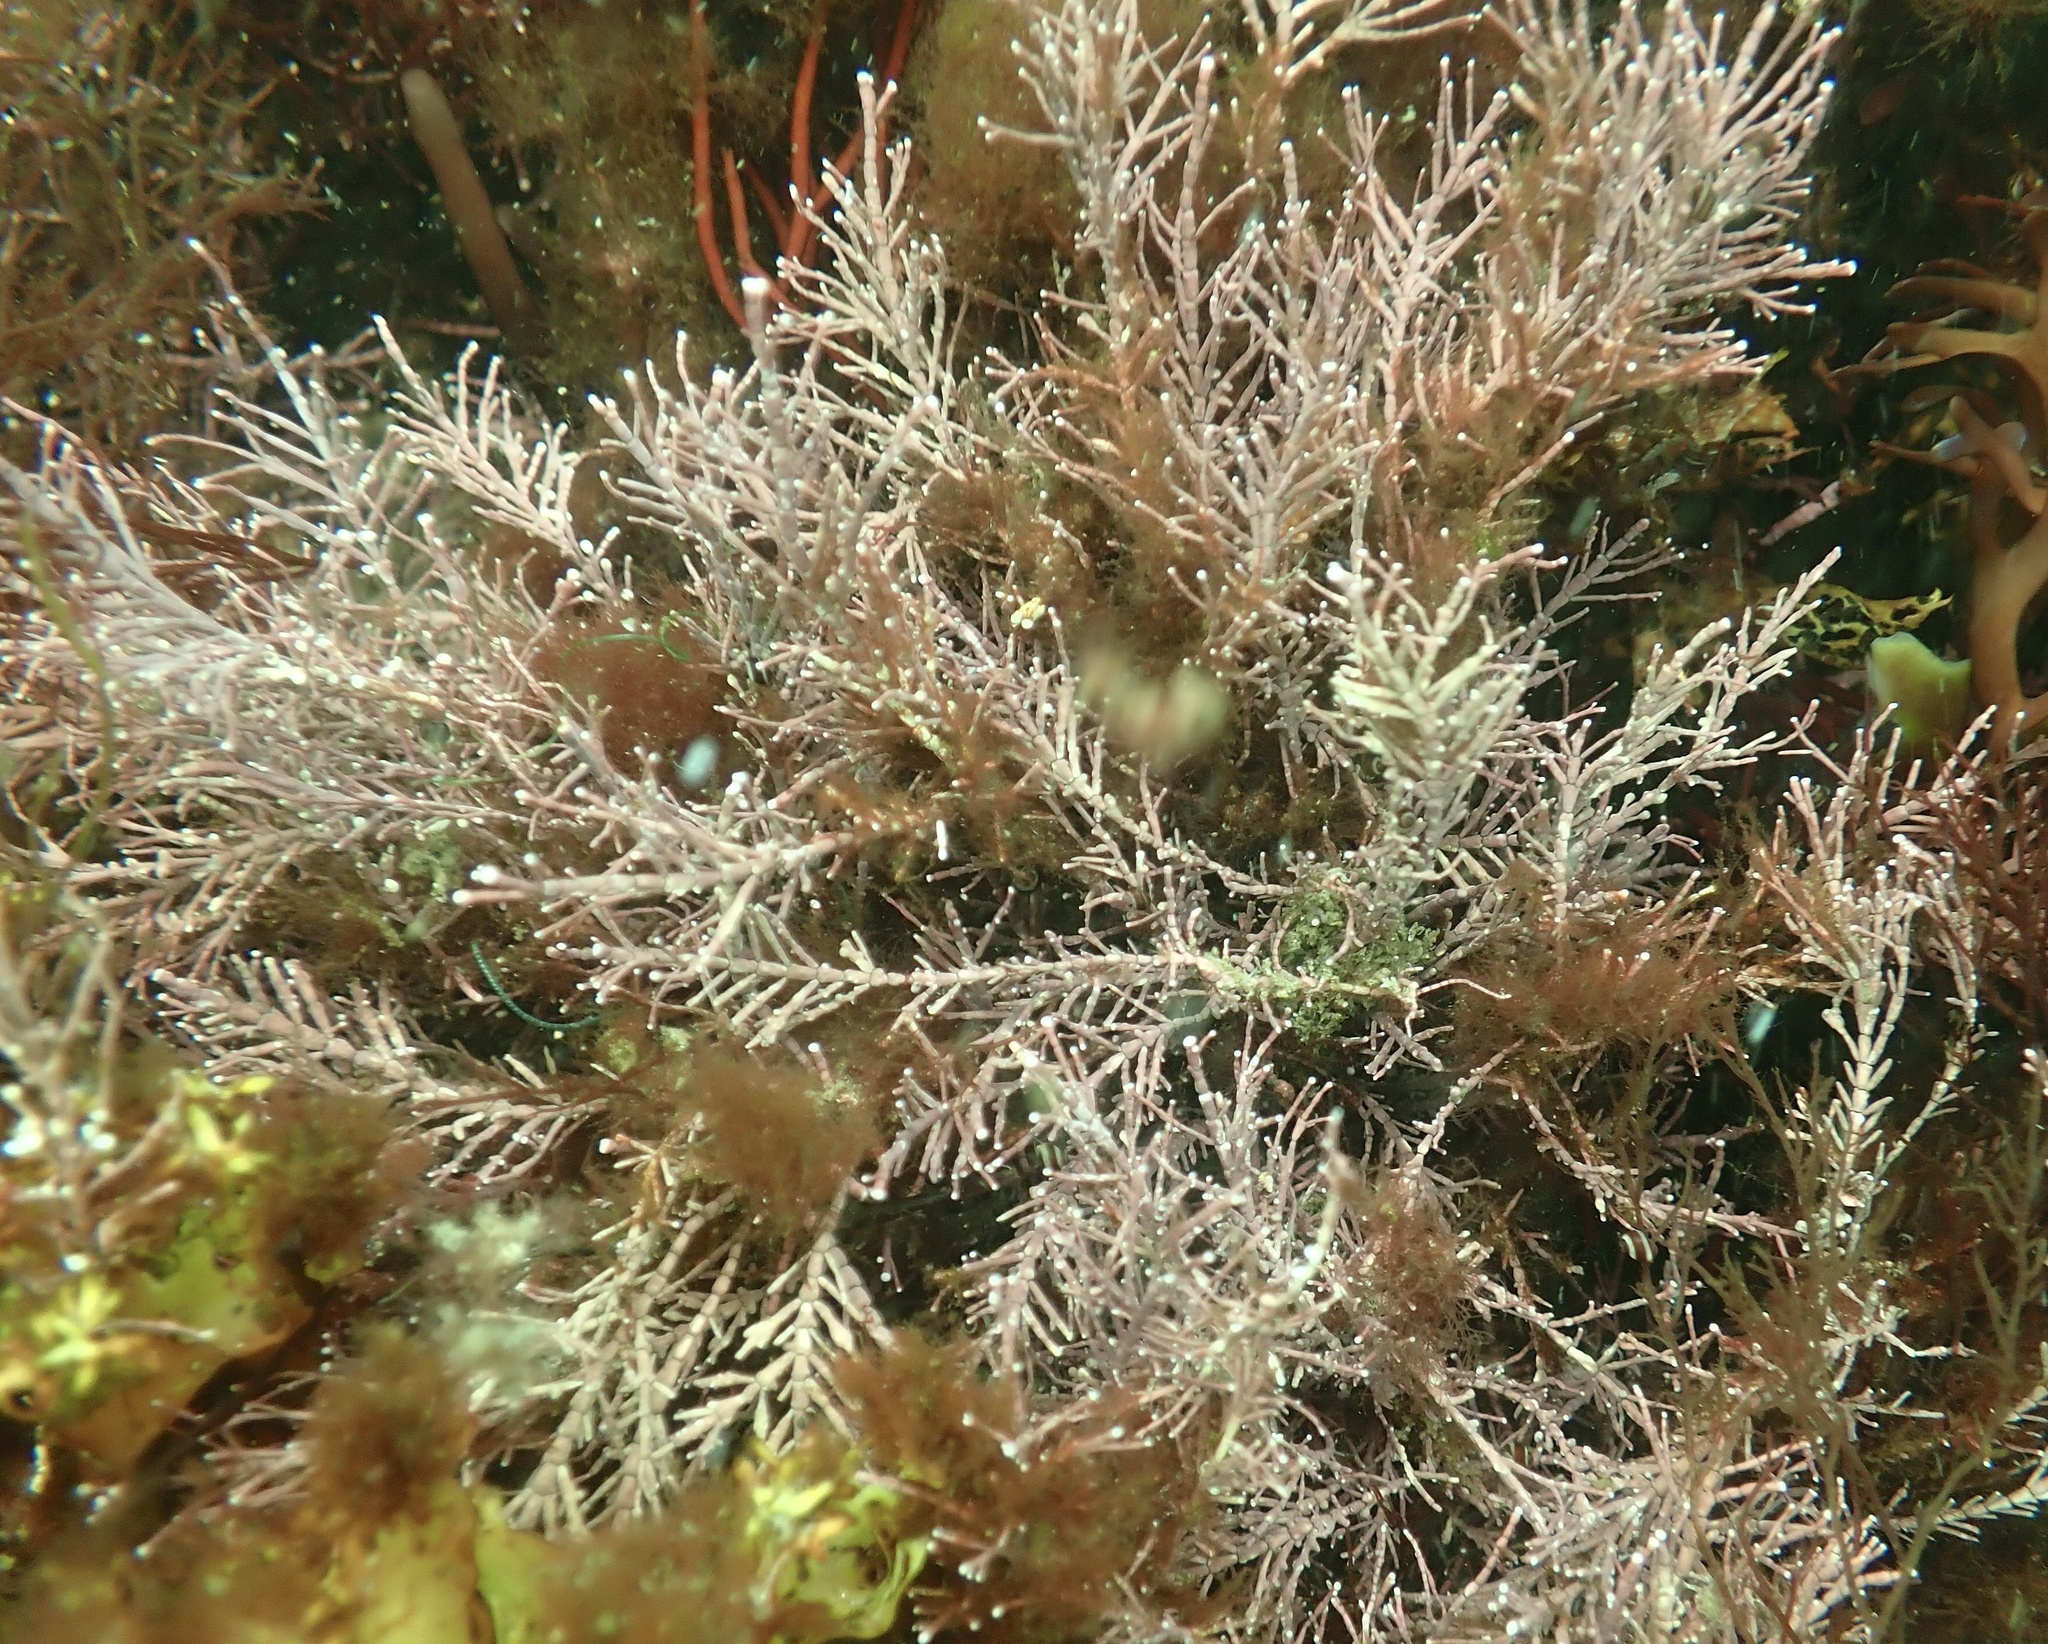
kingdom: Plantae
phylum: Rhodophyta
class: Florideophyceae
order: Corallinales
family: Corallinaceae
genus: Corallina
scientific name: Corallina officinalis
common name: Coral weed
